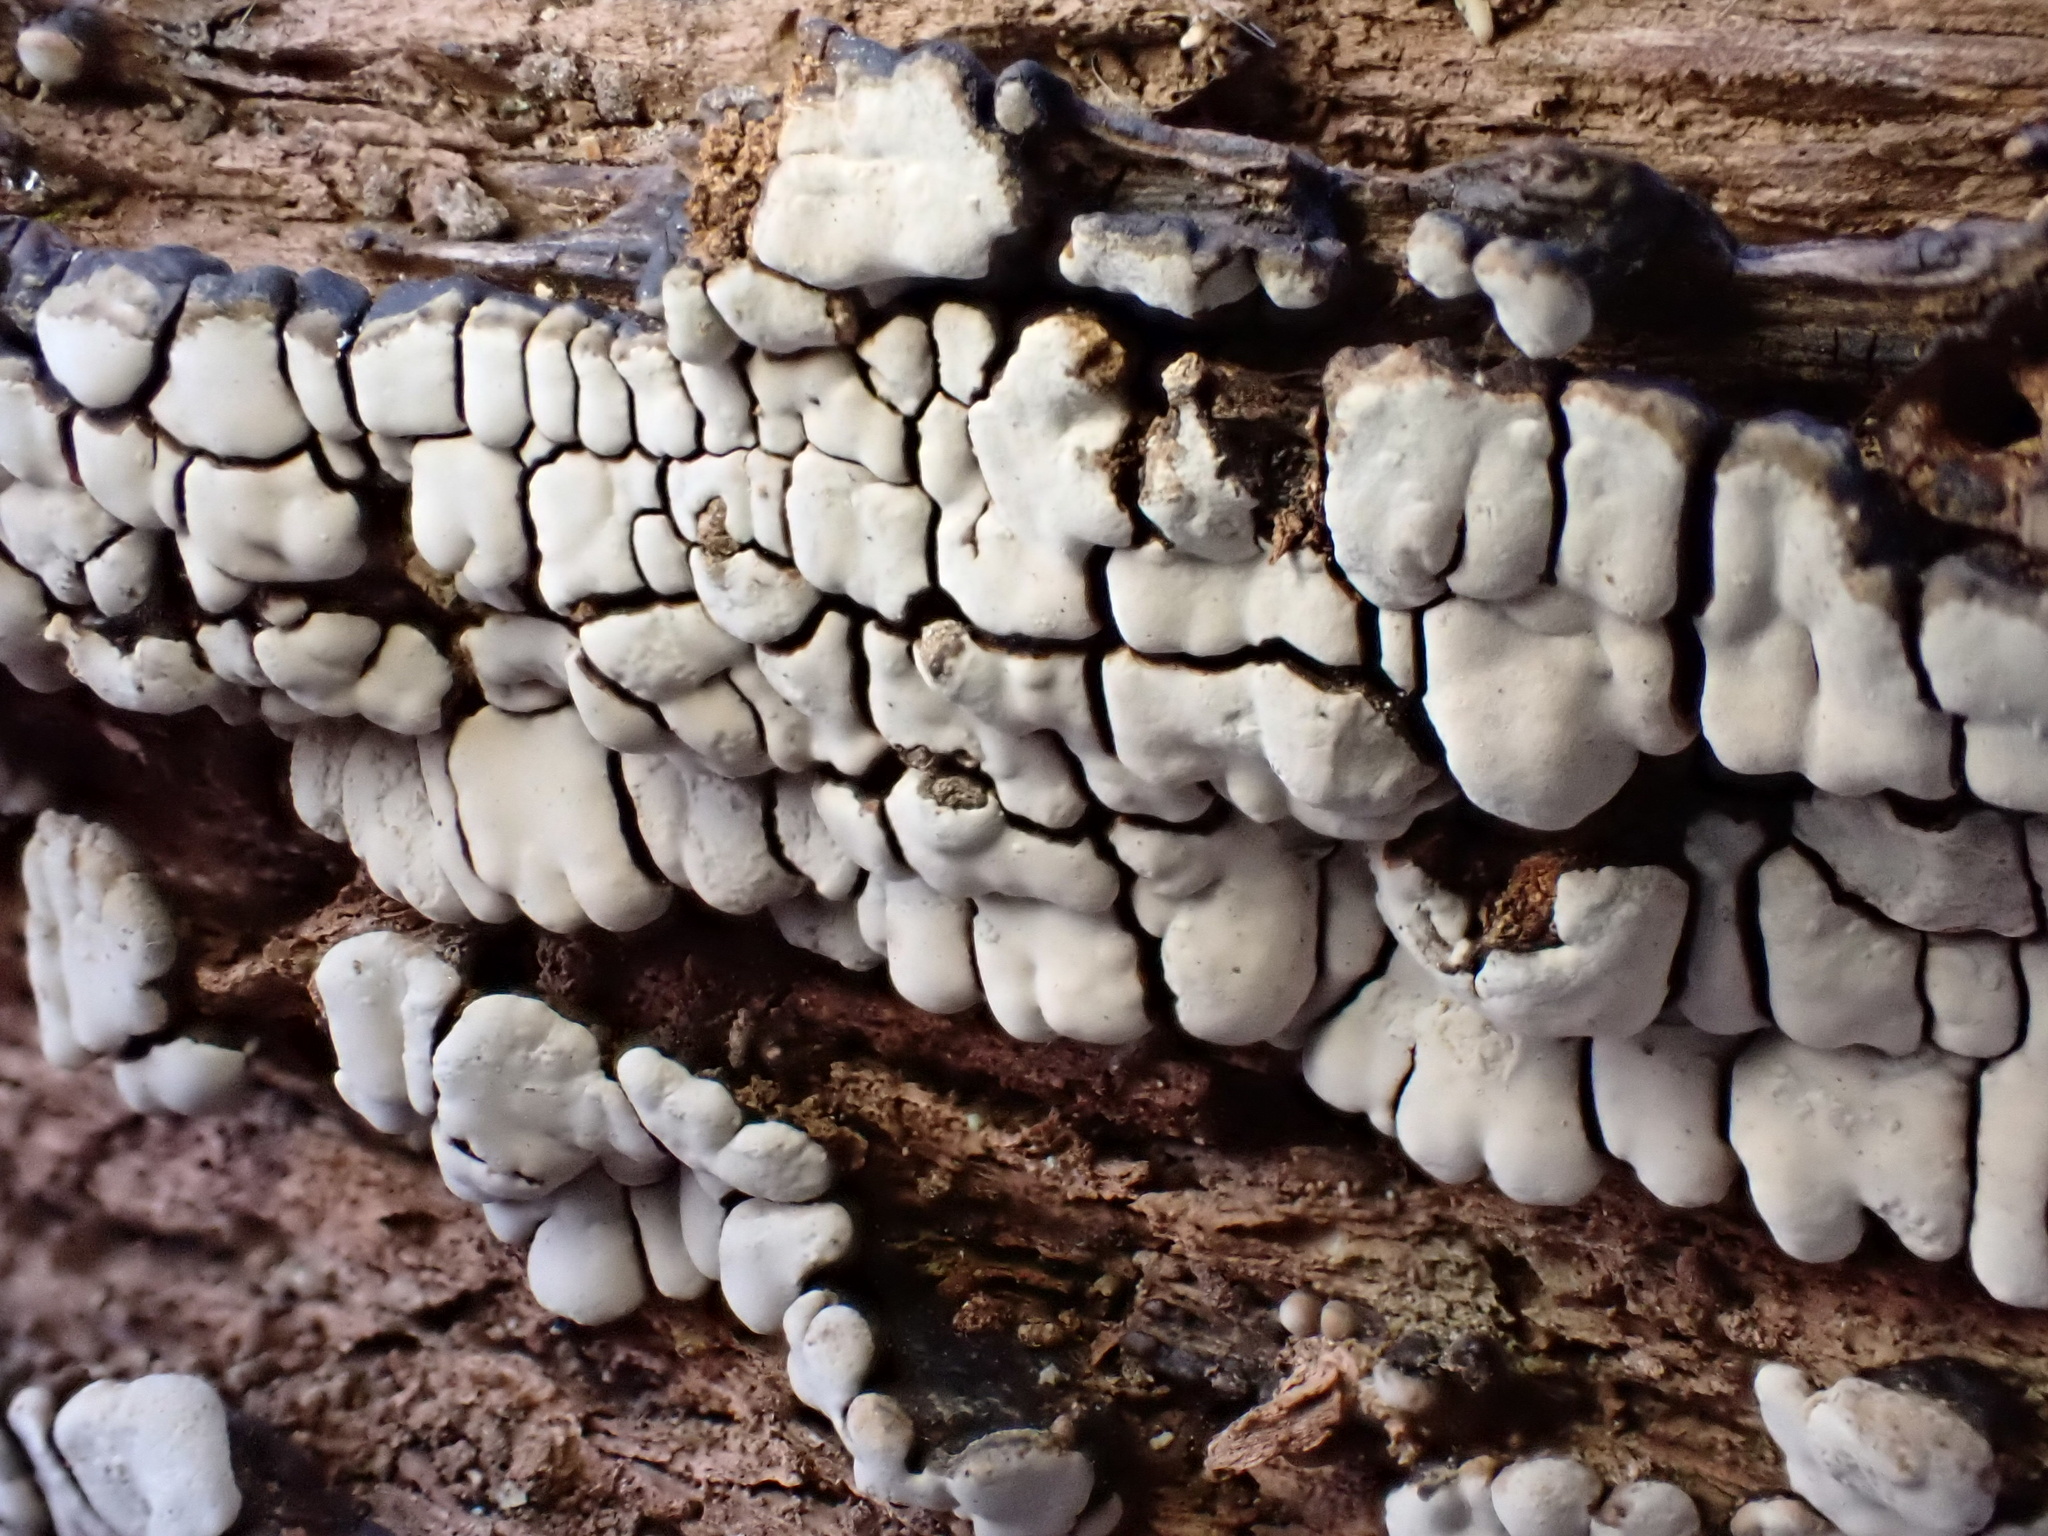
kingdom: Fungi
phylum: Basidiomycota
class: Agaricomycetes
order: Russulales
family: Stereaceae
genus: Xylobolus
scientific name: Xylobolus frustulatus
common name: Ceramic parchment
